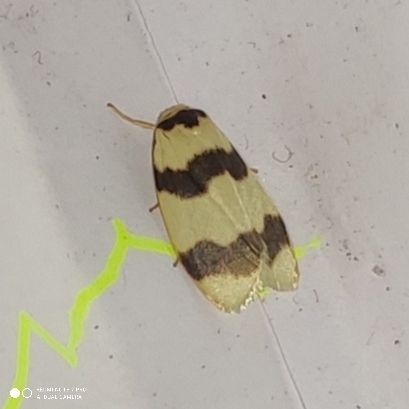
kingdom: Animalia
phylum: Arthropoda
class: Insecta
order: Lepidoptera
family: Erebidae
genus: Padenia
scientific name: Padenia transversa
